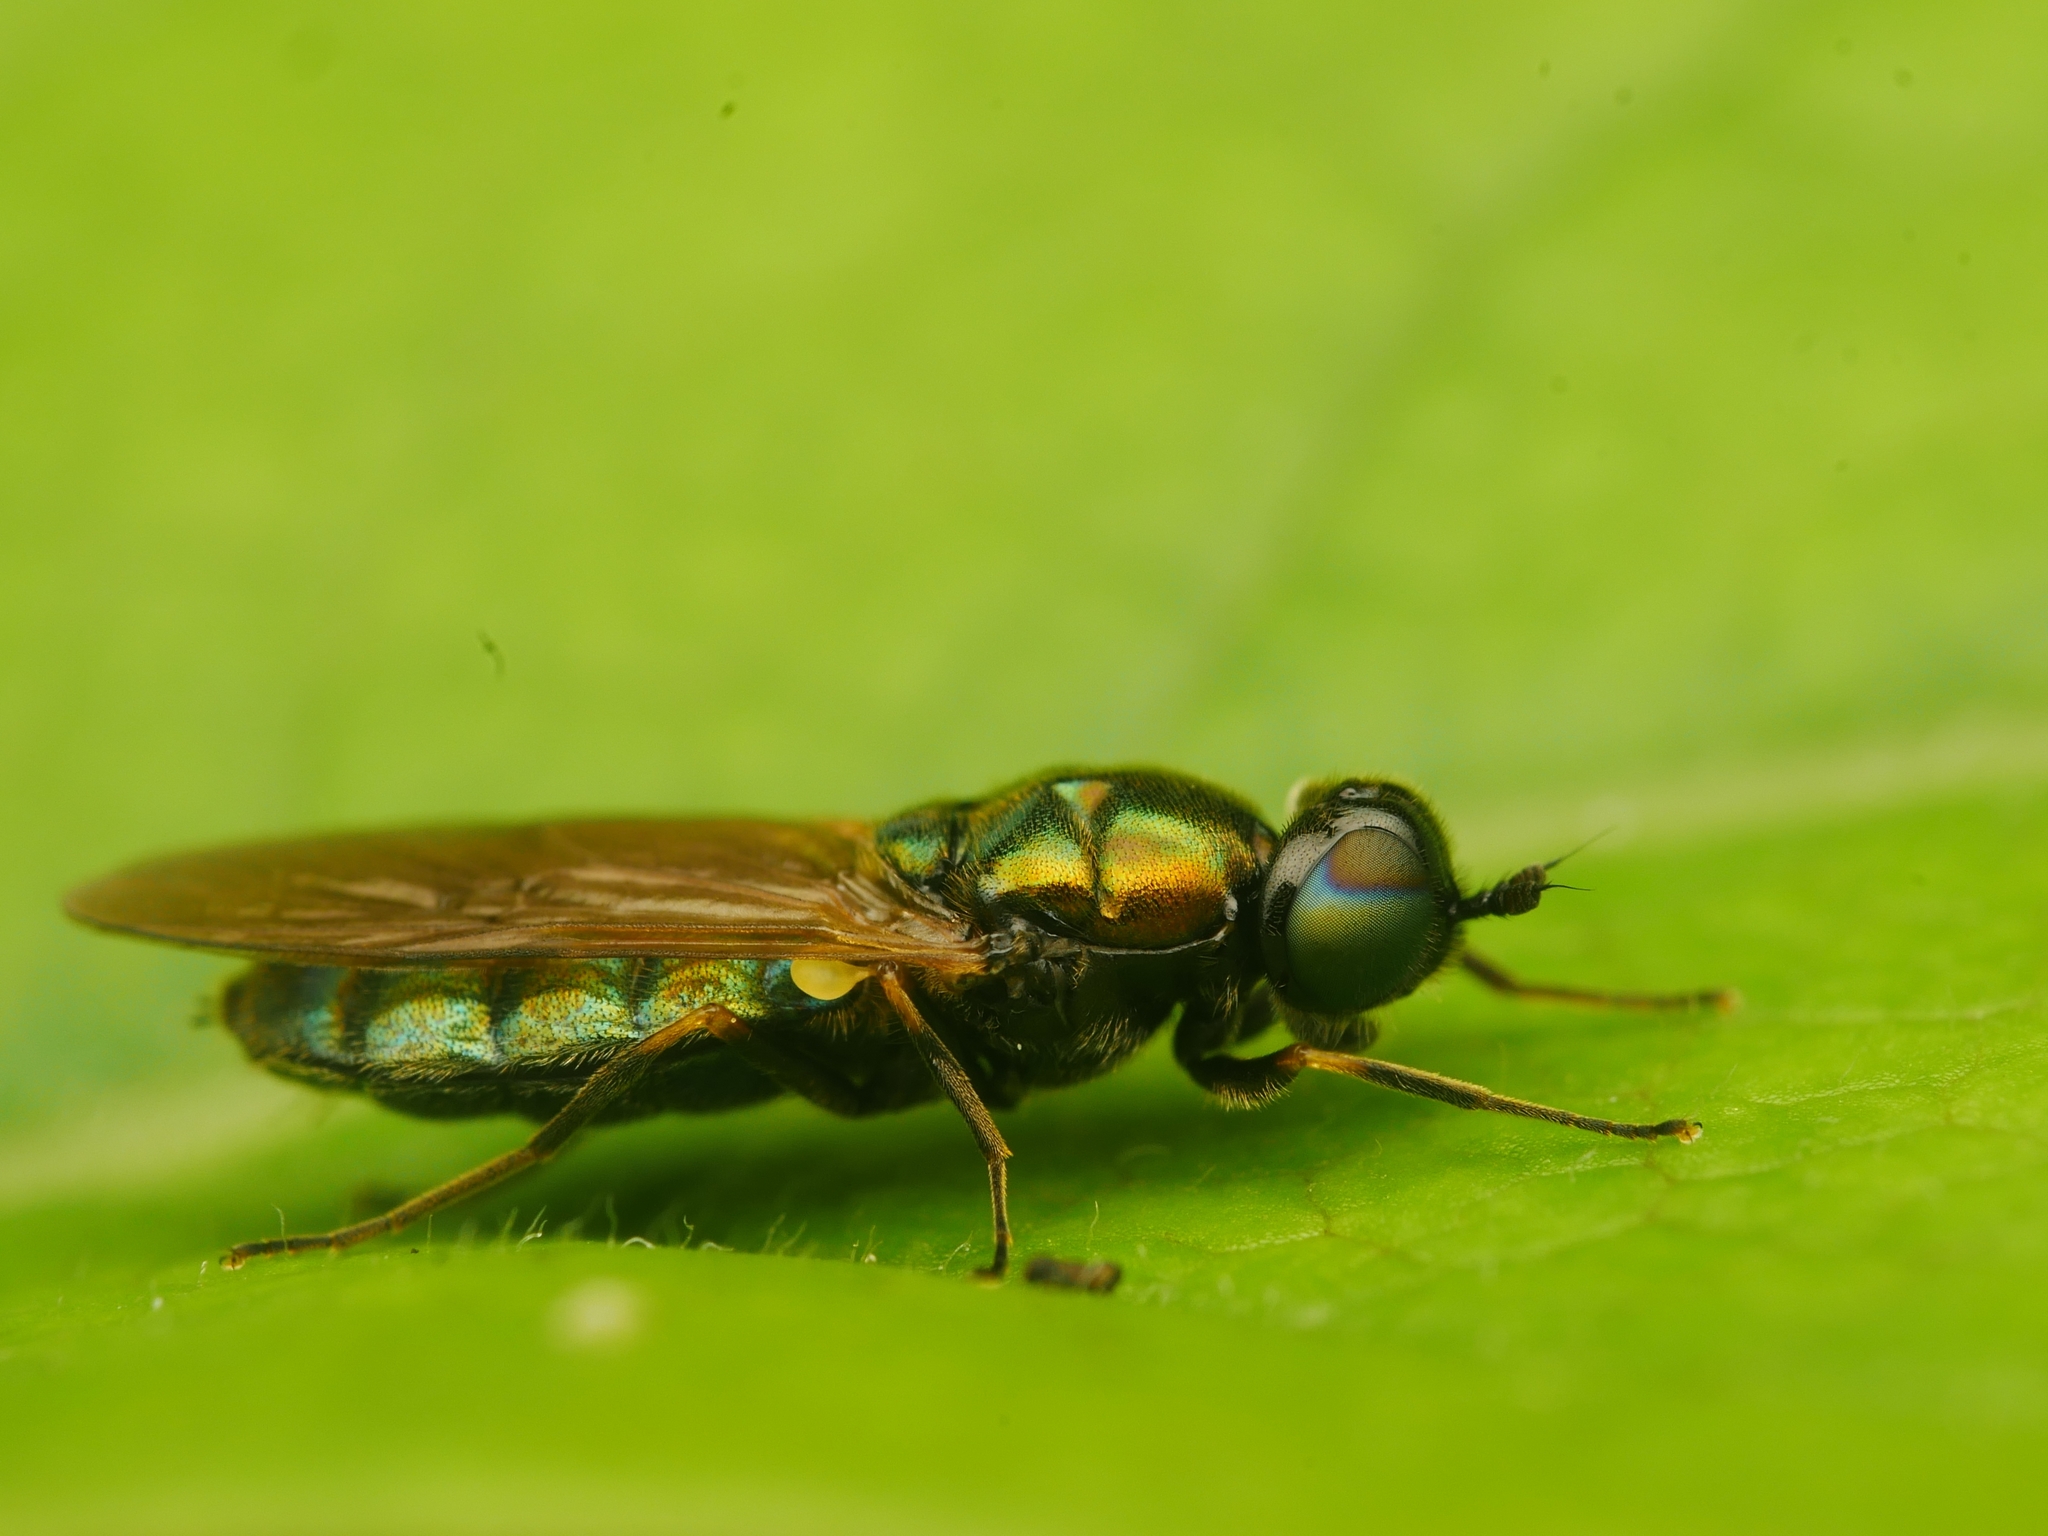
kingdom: Animalia
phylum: Arthropoda
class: Insecta
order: Diptera
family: Stratiomyidae
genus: Chloromyia
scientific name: Chloromyia formosa
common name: Soldier fly
